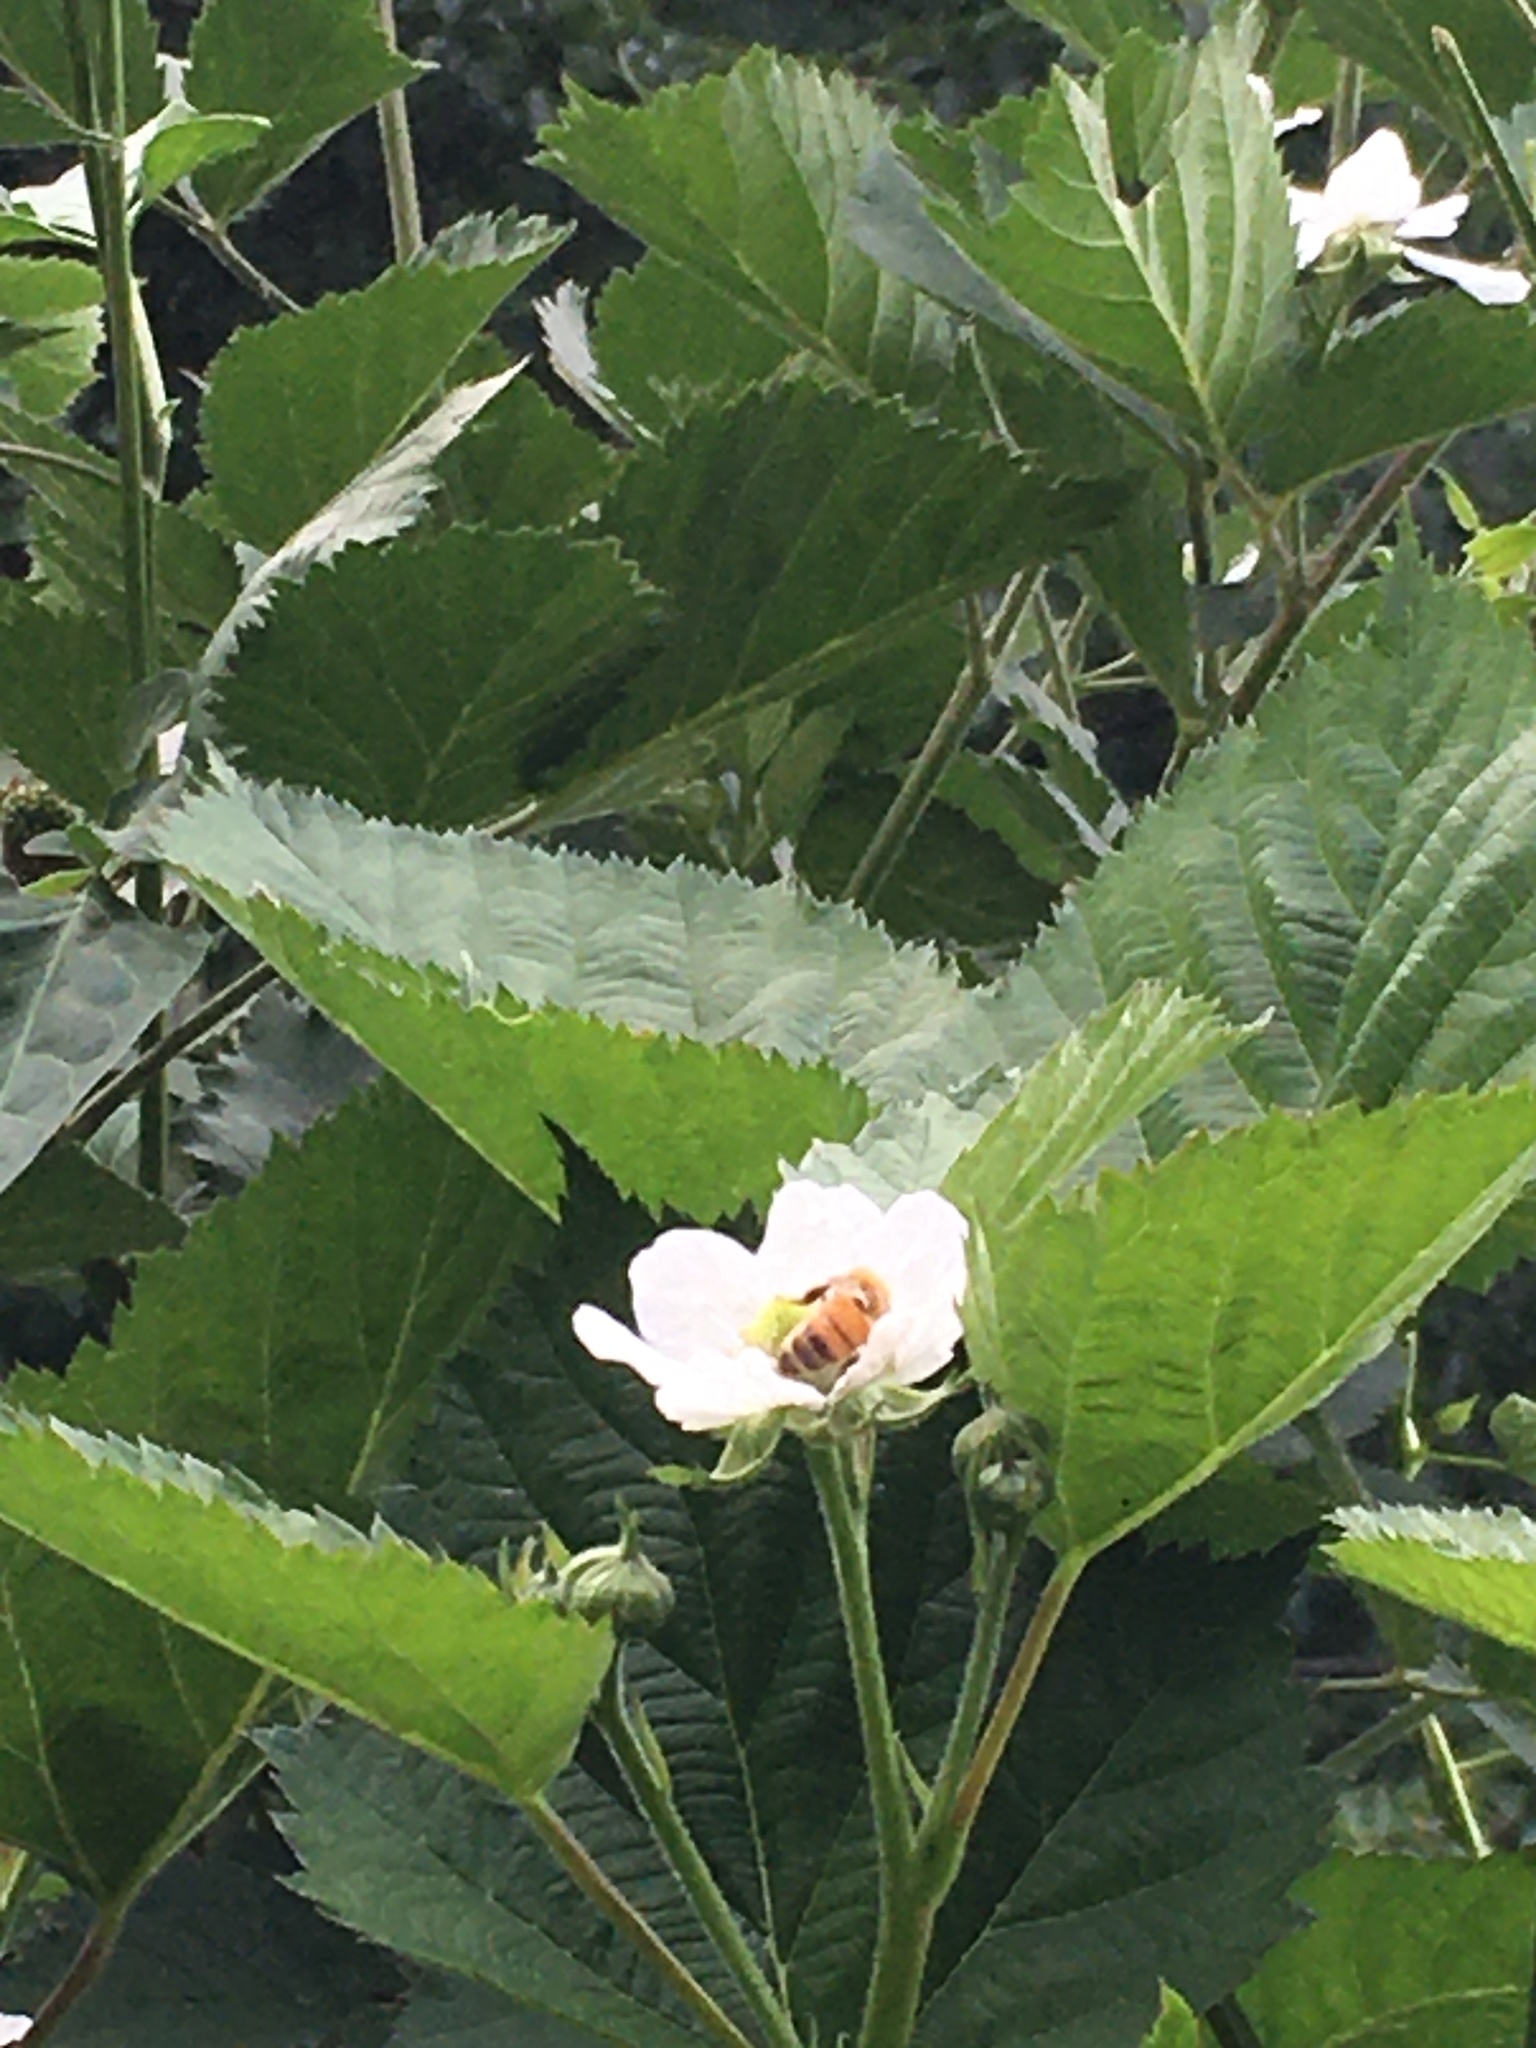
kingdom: Animalia
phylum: Arthropoda
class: Insecta
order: Hymenoptera
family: Apidae
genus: Apis
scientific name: Apis mellifera
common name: Honey bee
